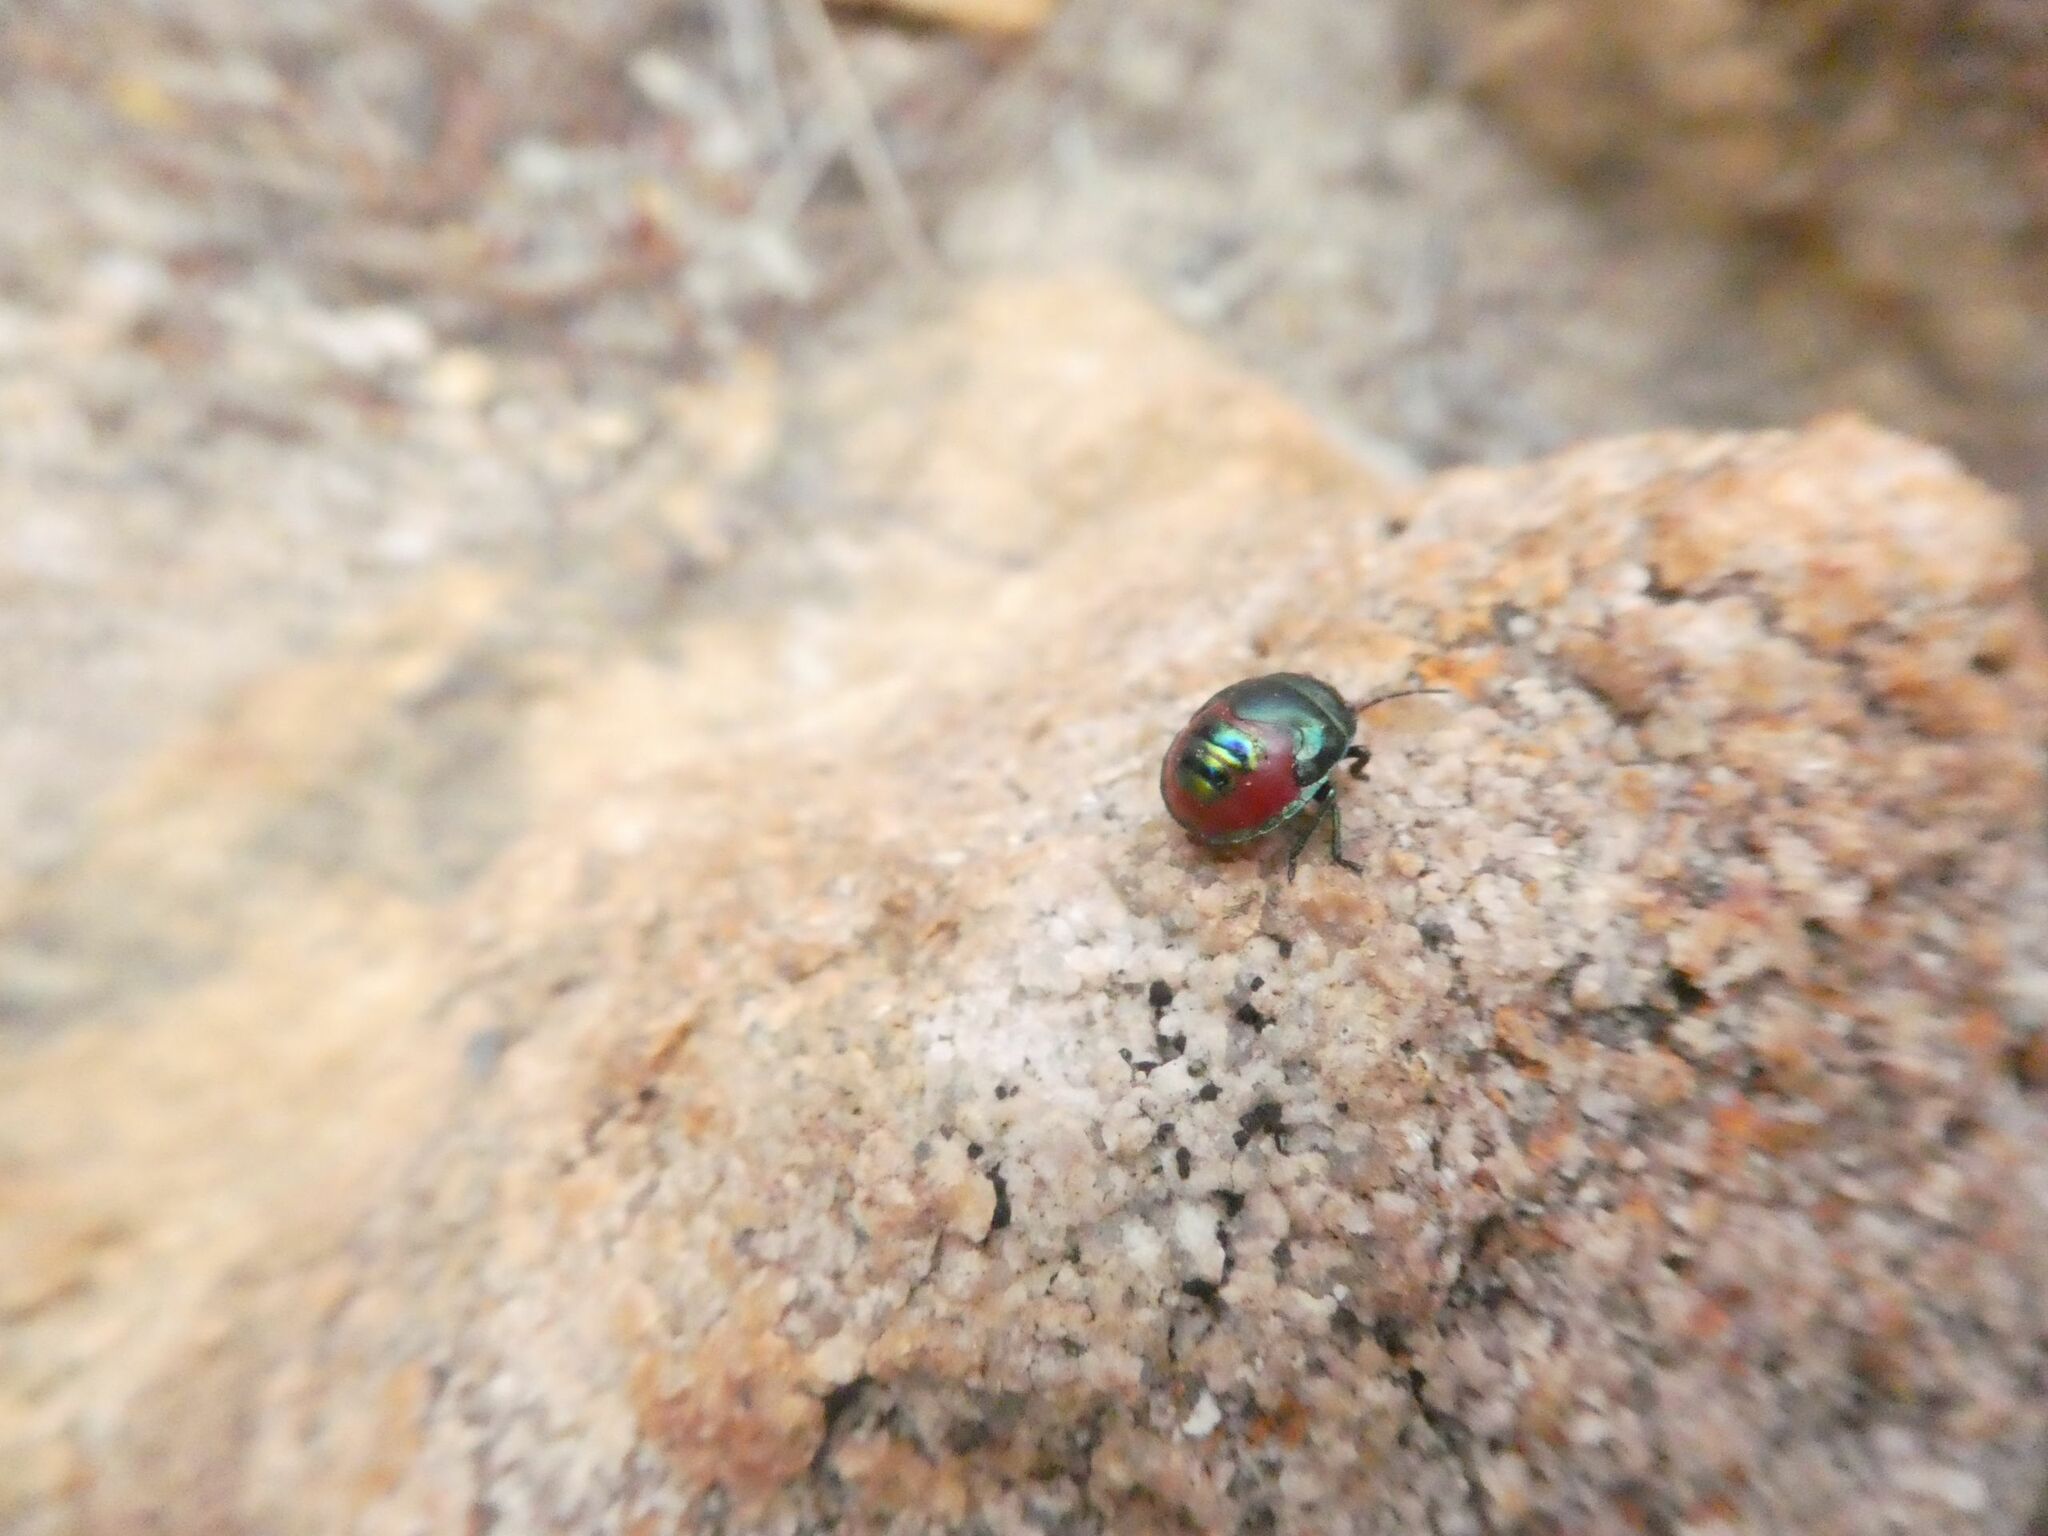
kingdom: Animalia
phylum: Arthropoda
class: Insecta
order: Hemiptera
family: Scutelleridae
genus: Choerocoris
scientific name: Choerocoris paganus
